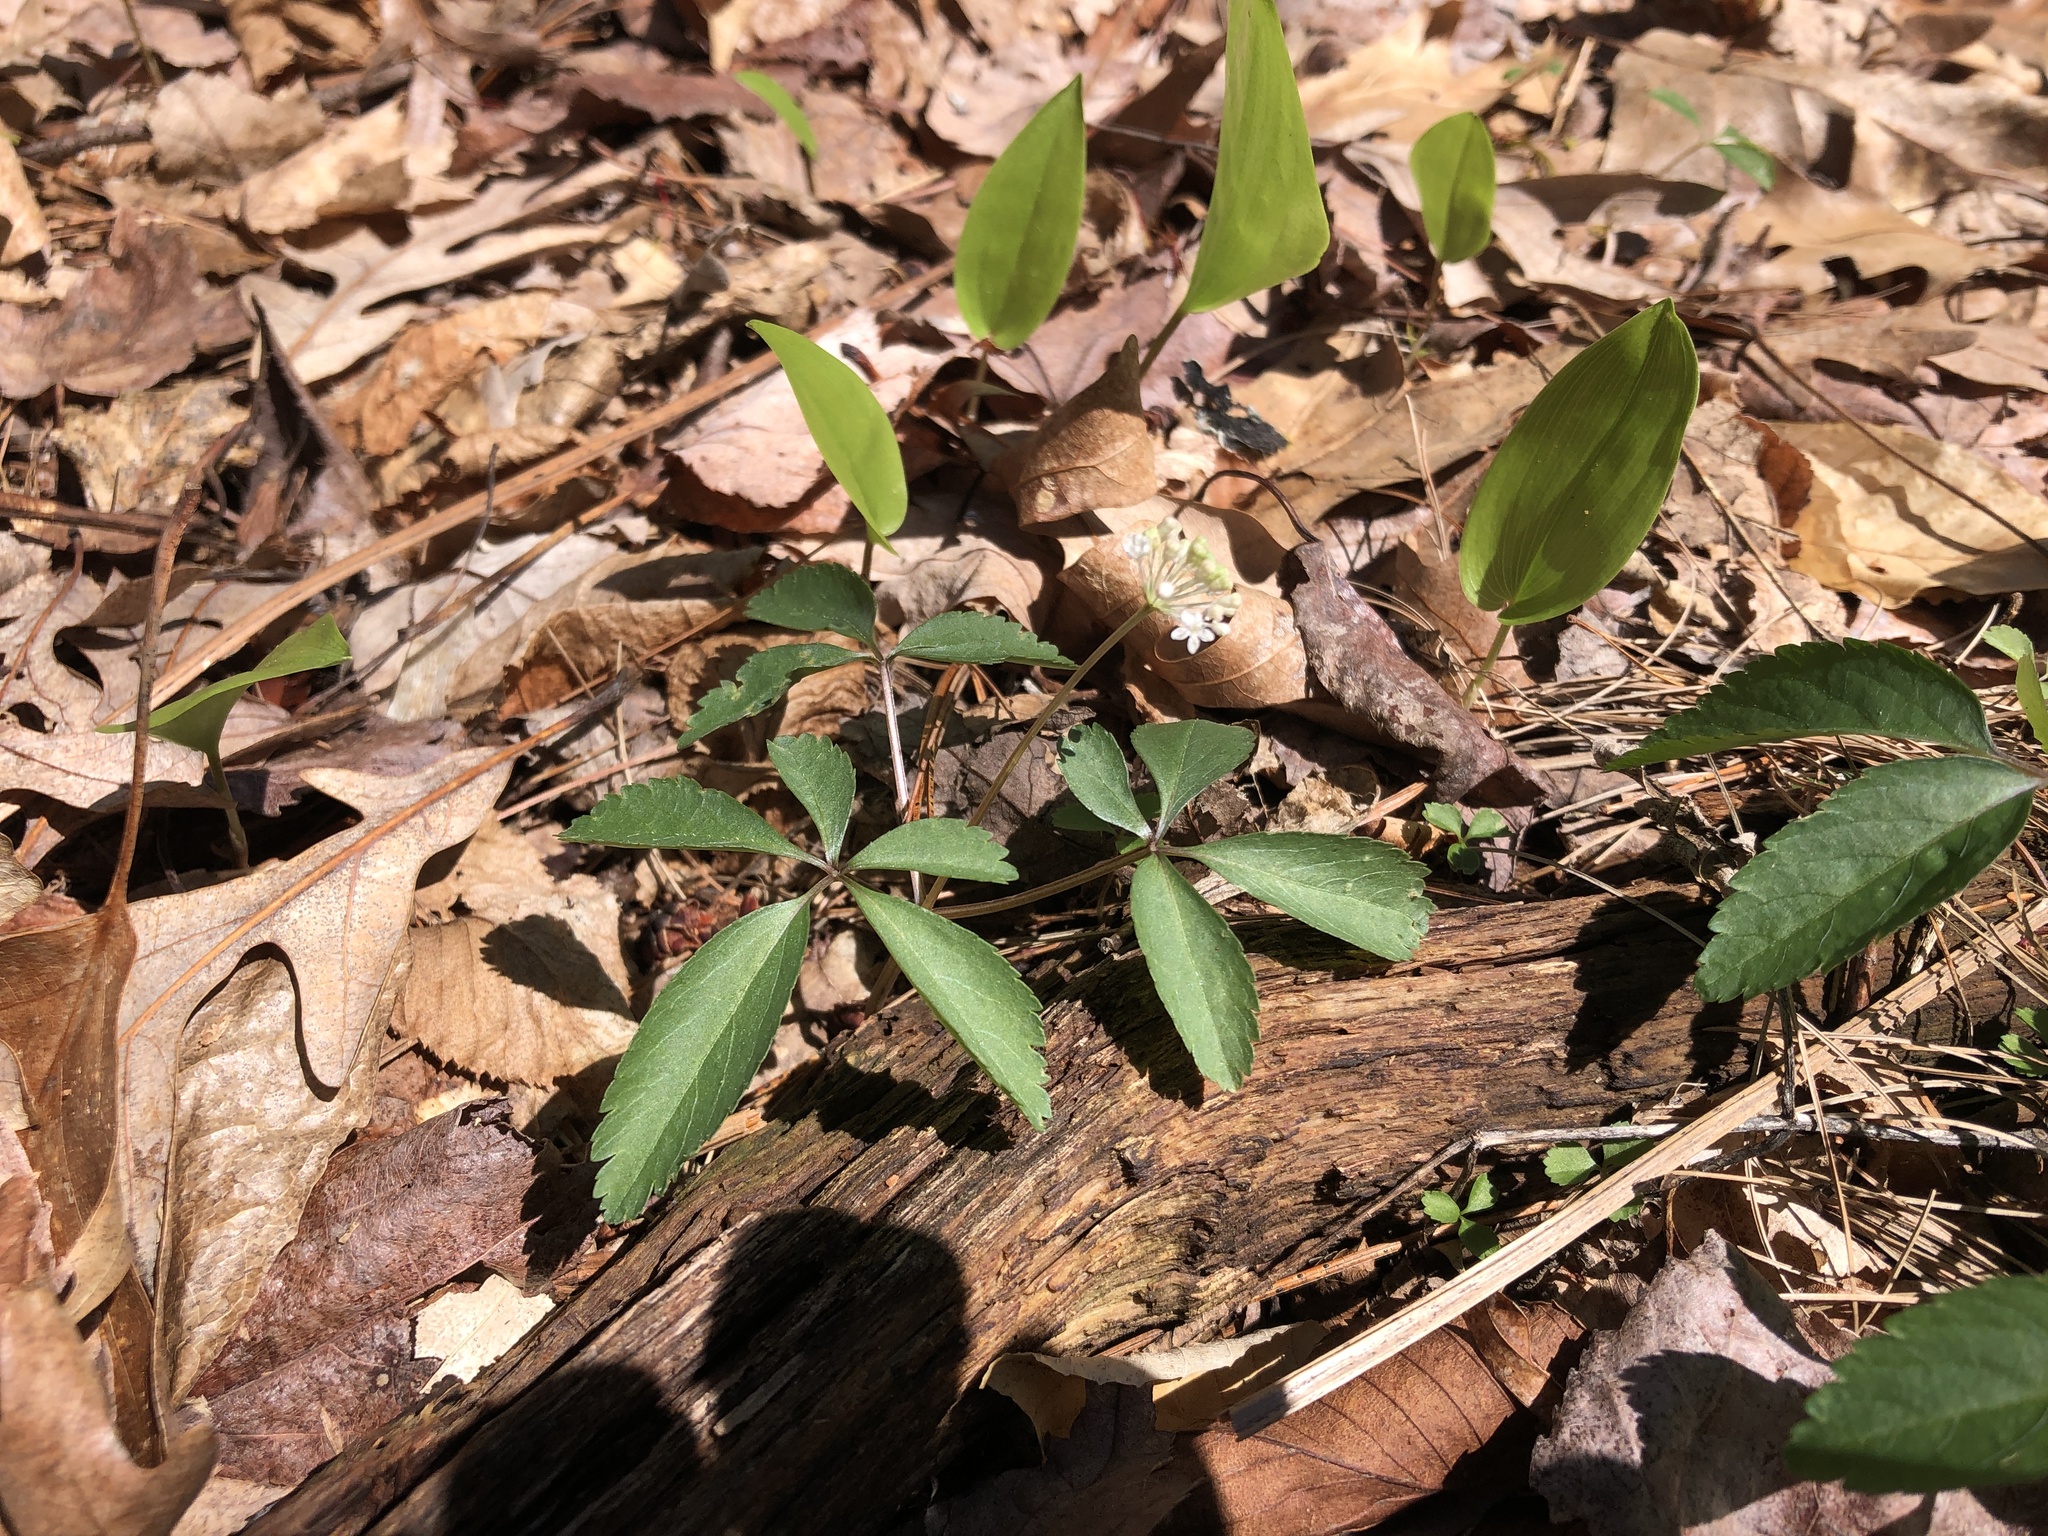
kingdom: Plantae
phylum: Tracheophyta
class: Magnoliopsida
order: Apiales
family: Araliaceae
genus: Panax
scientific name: Panax trifolius
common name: Dwarf ginseng
